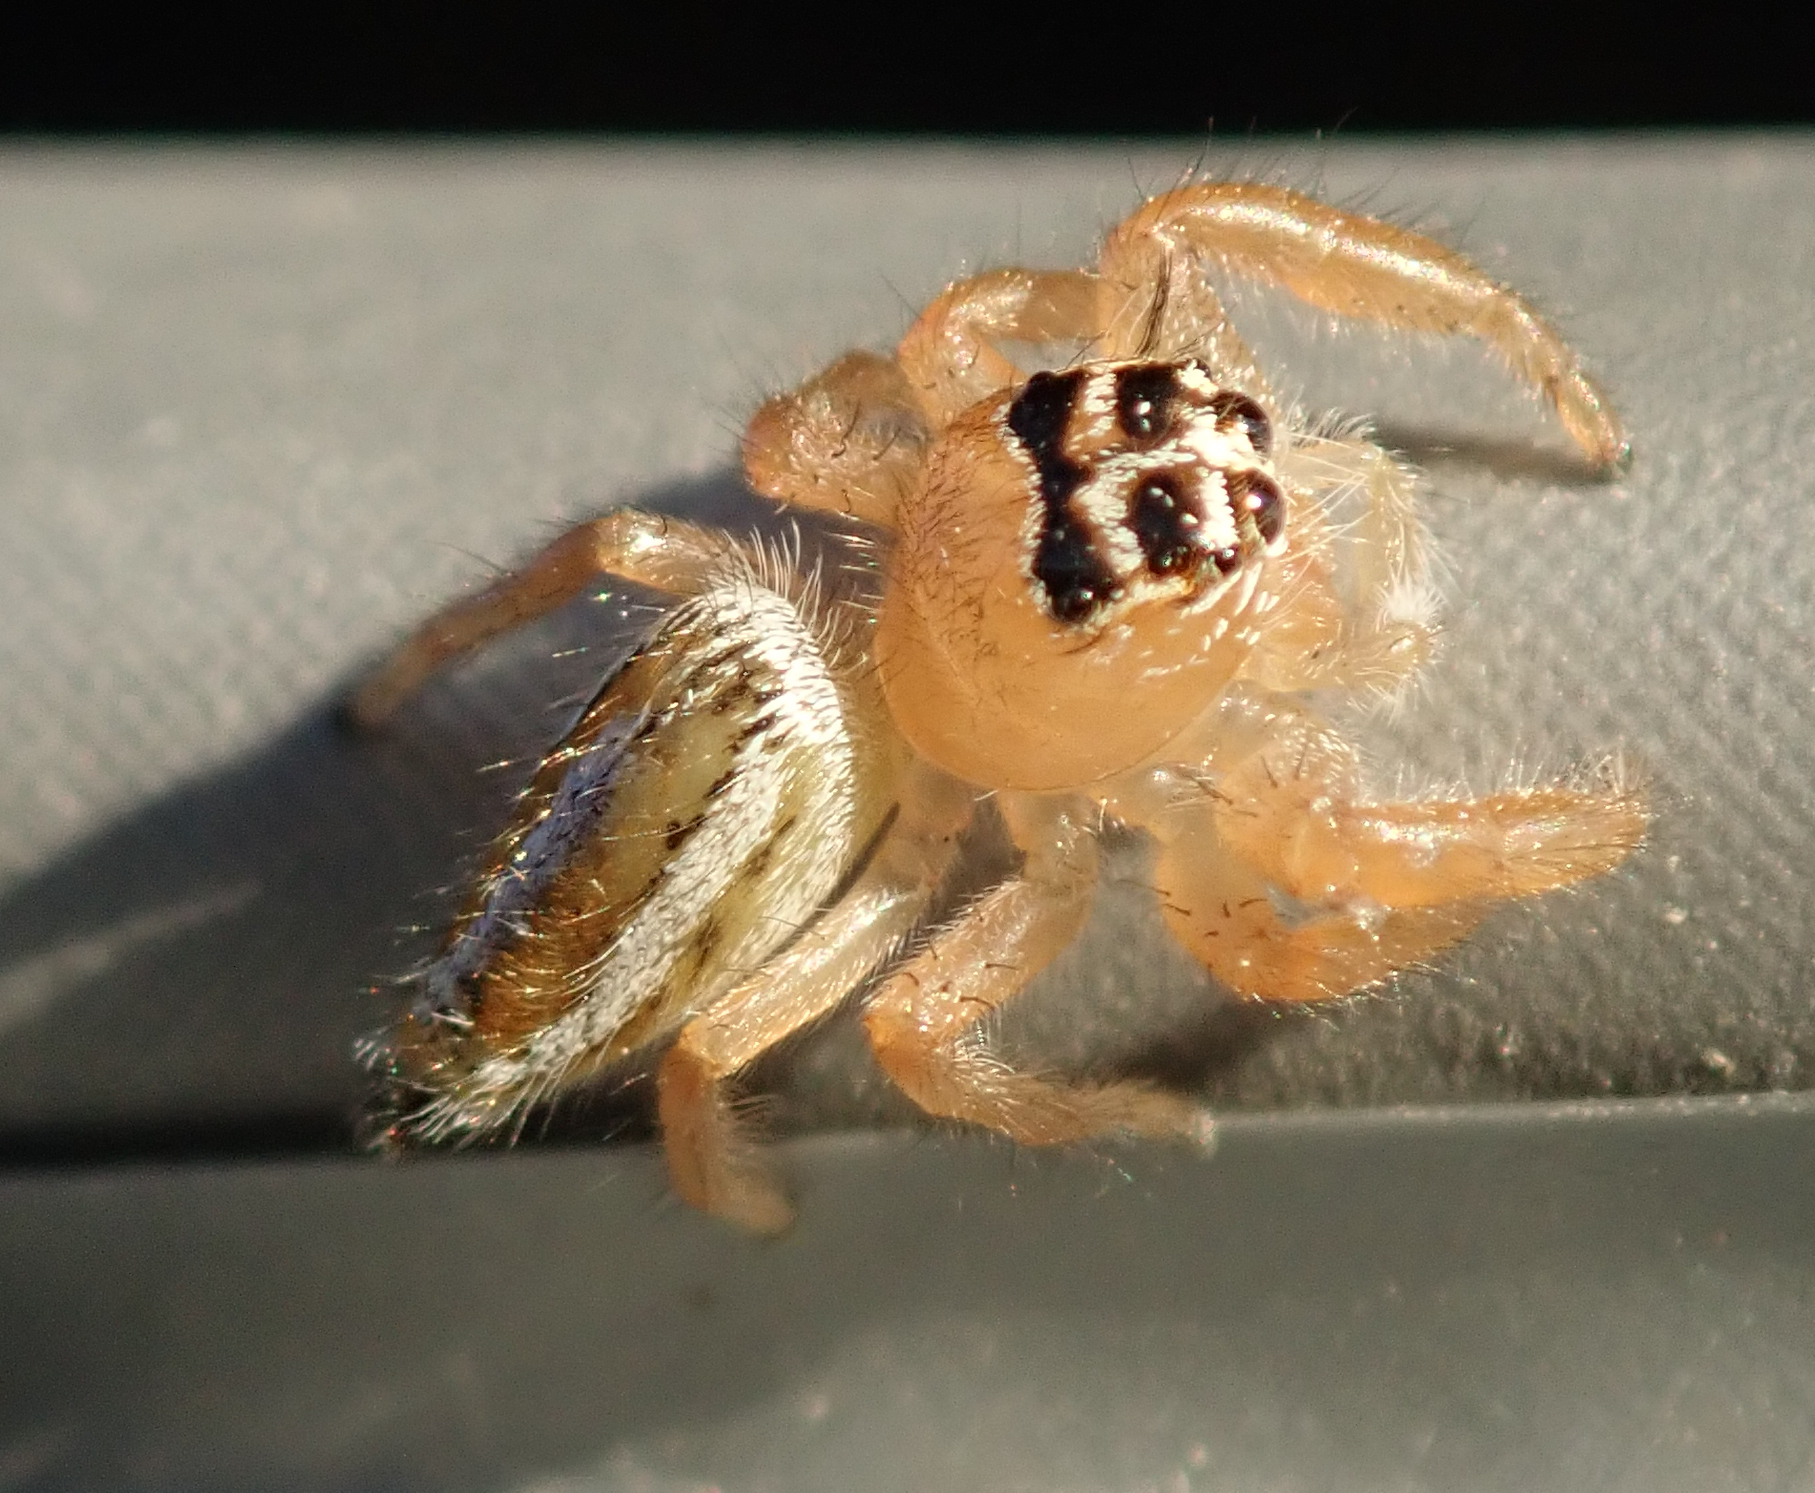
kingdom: Animalia
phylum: Arthropoda
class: Arachnida
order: Araneae
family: Salticidae
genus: Thyene
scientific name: Thyene inflata
